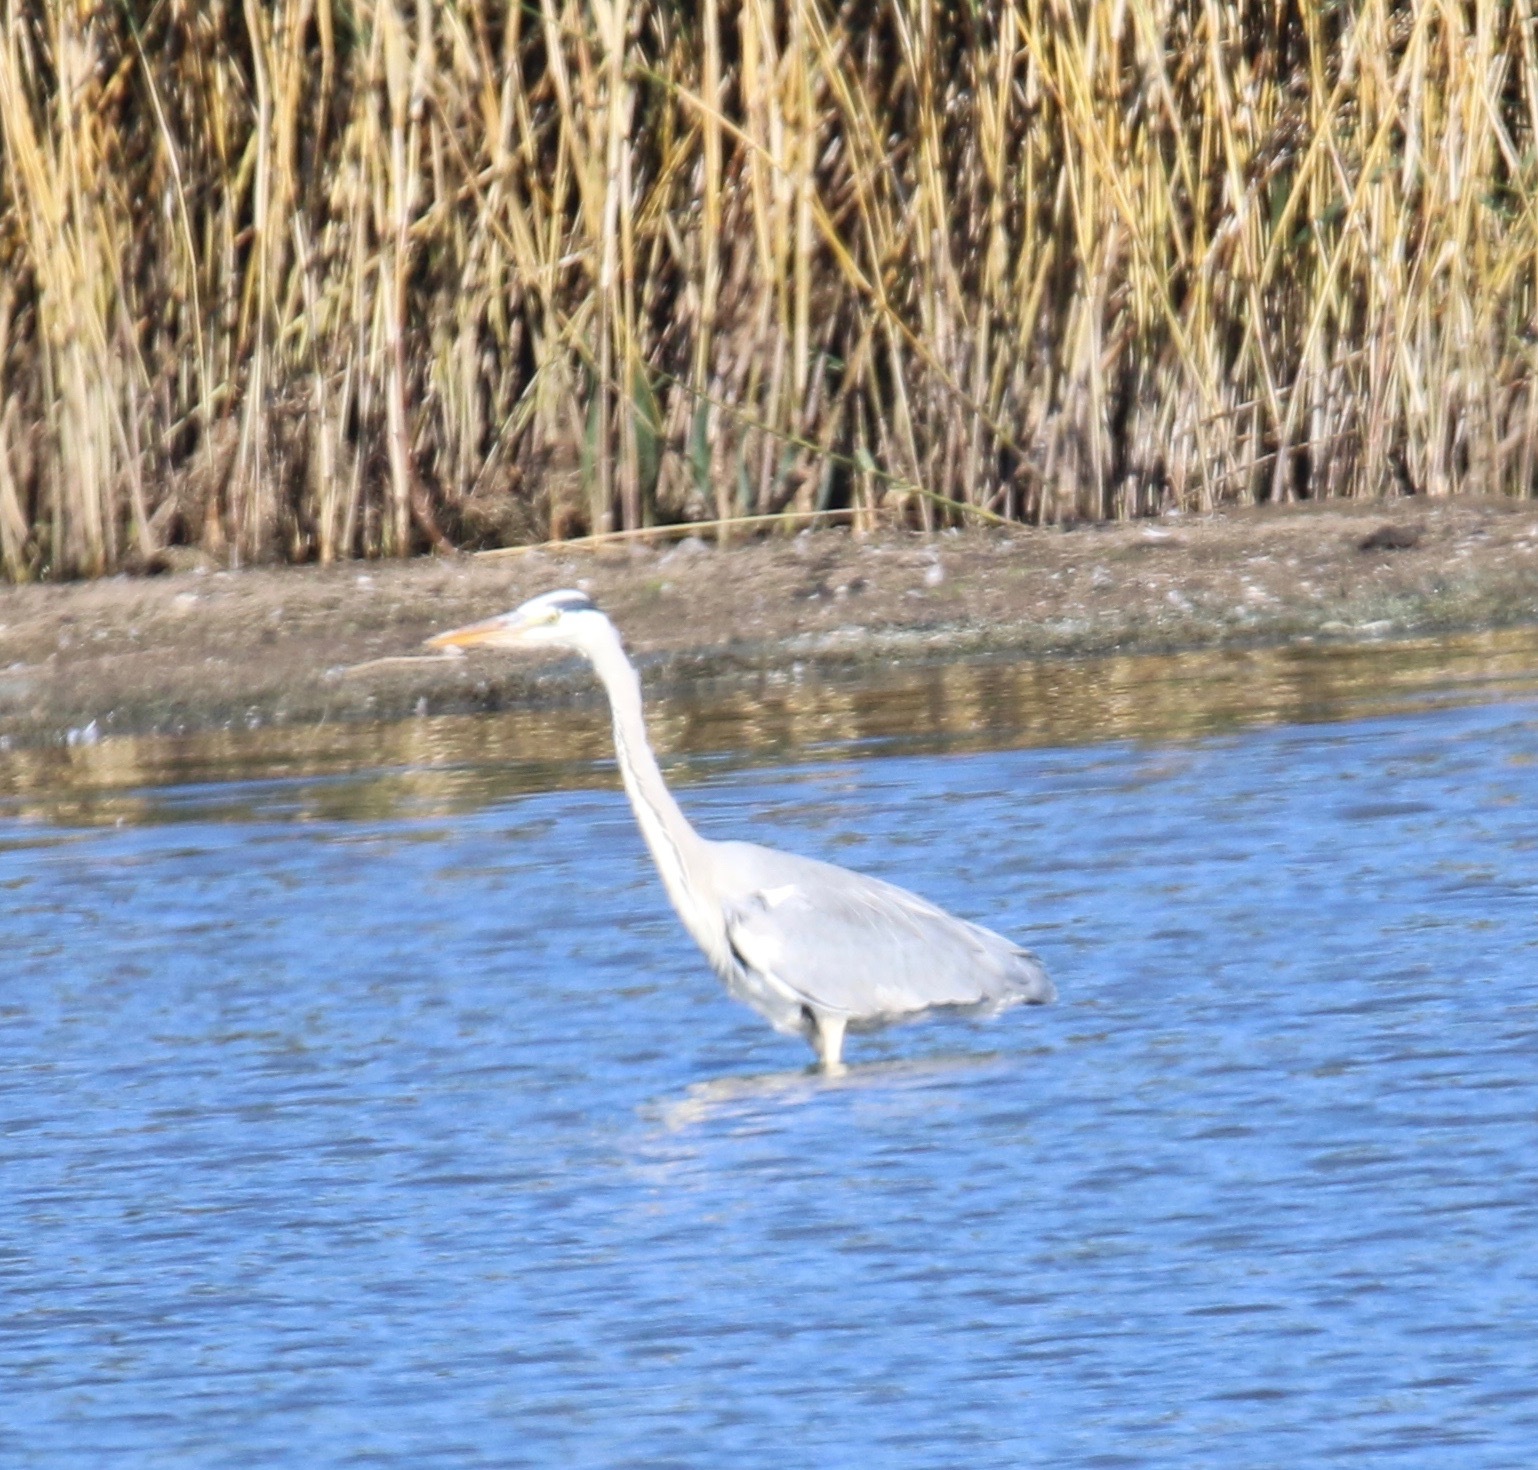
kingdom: Animalia
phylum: Chordata
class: Aves
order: Pelecaniformes
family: Ardeidae
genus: Ardea
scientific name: Ardea cinerea
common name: Grey heron
